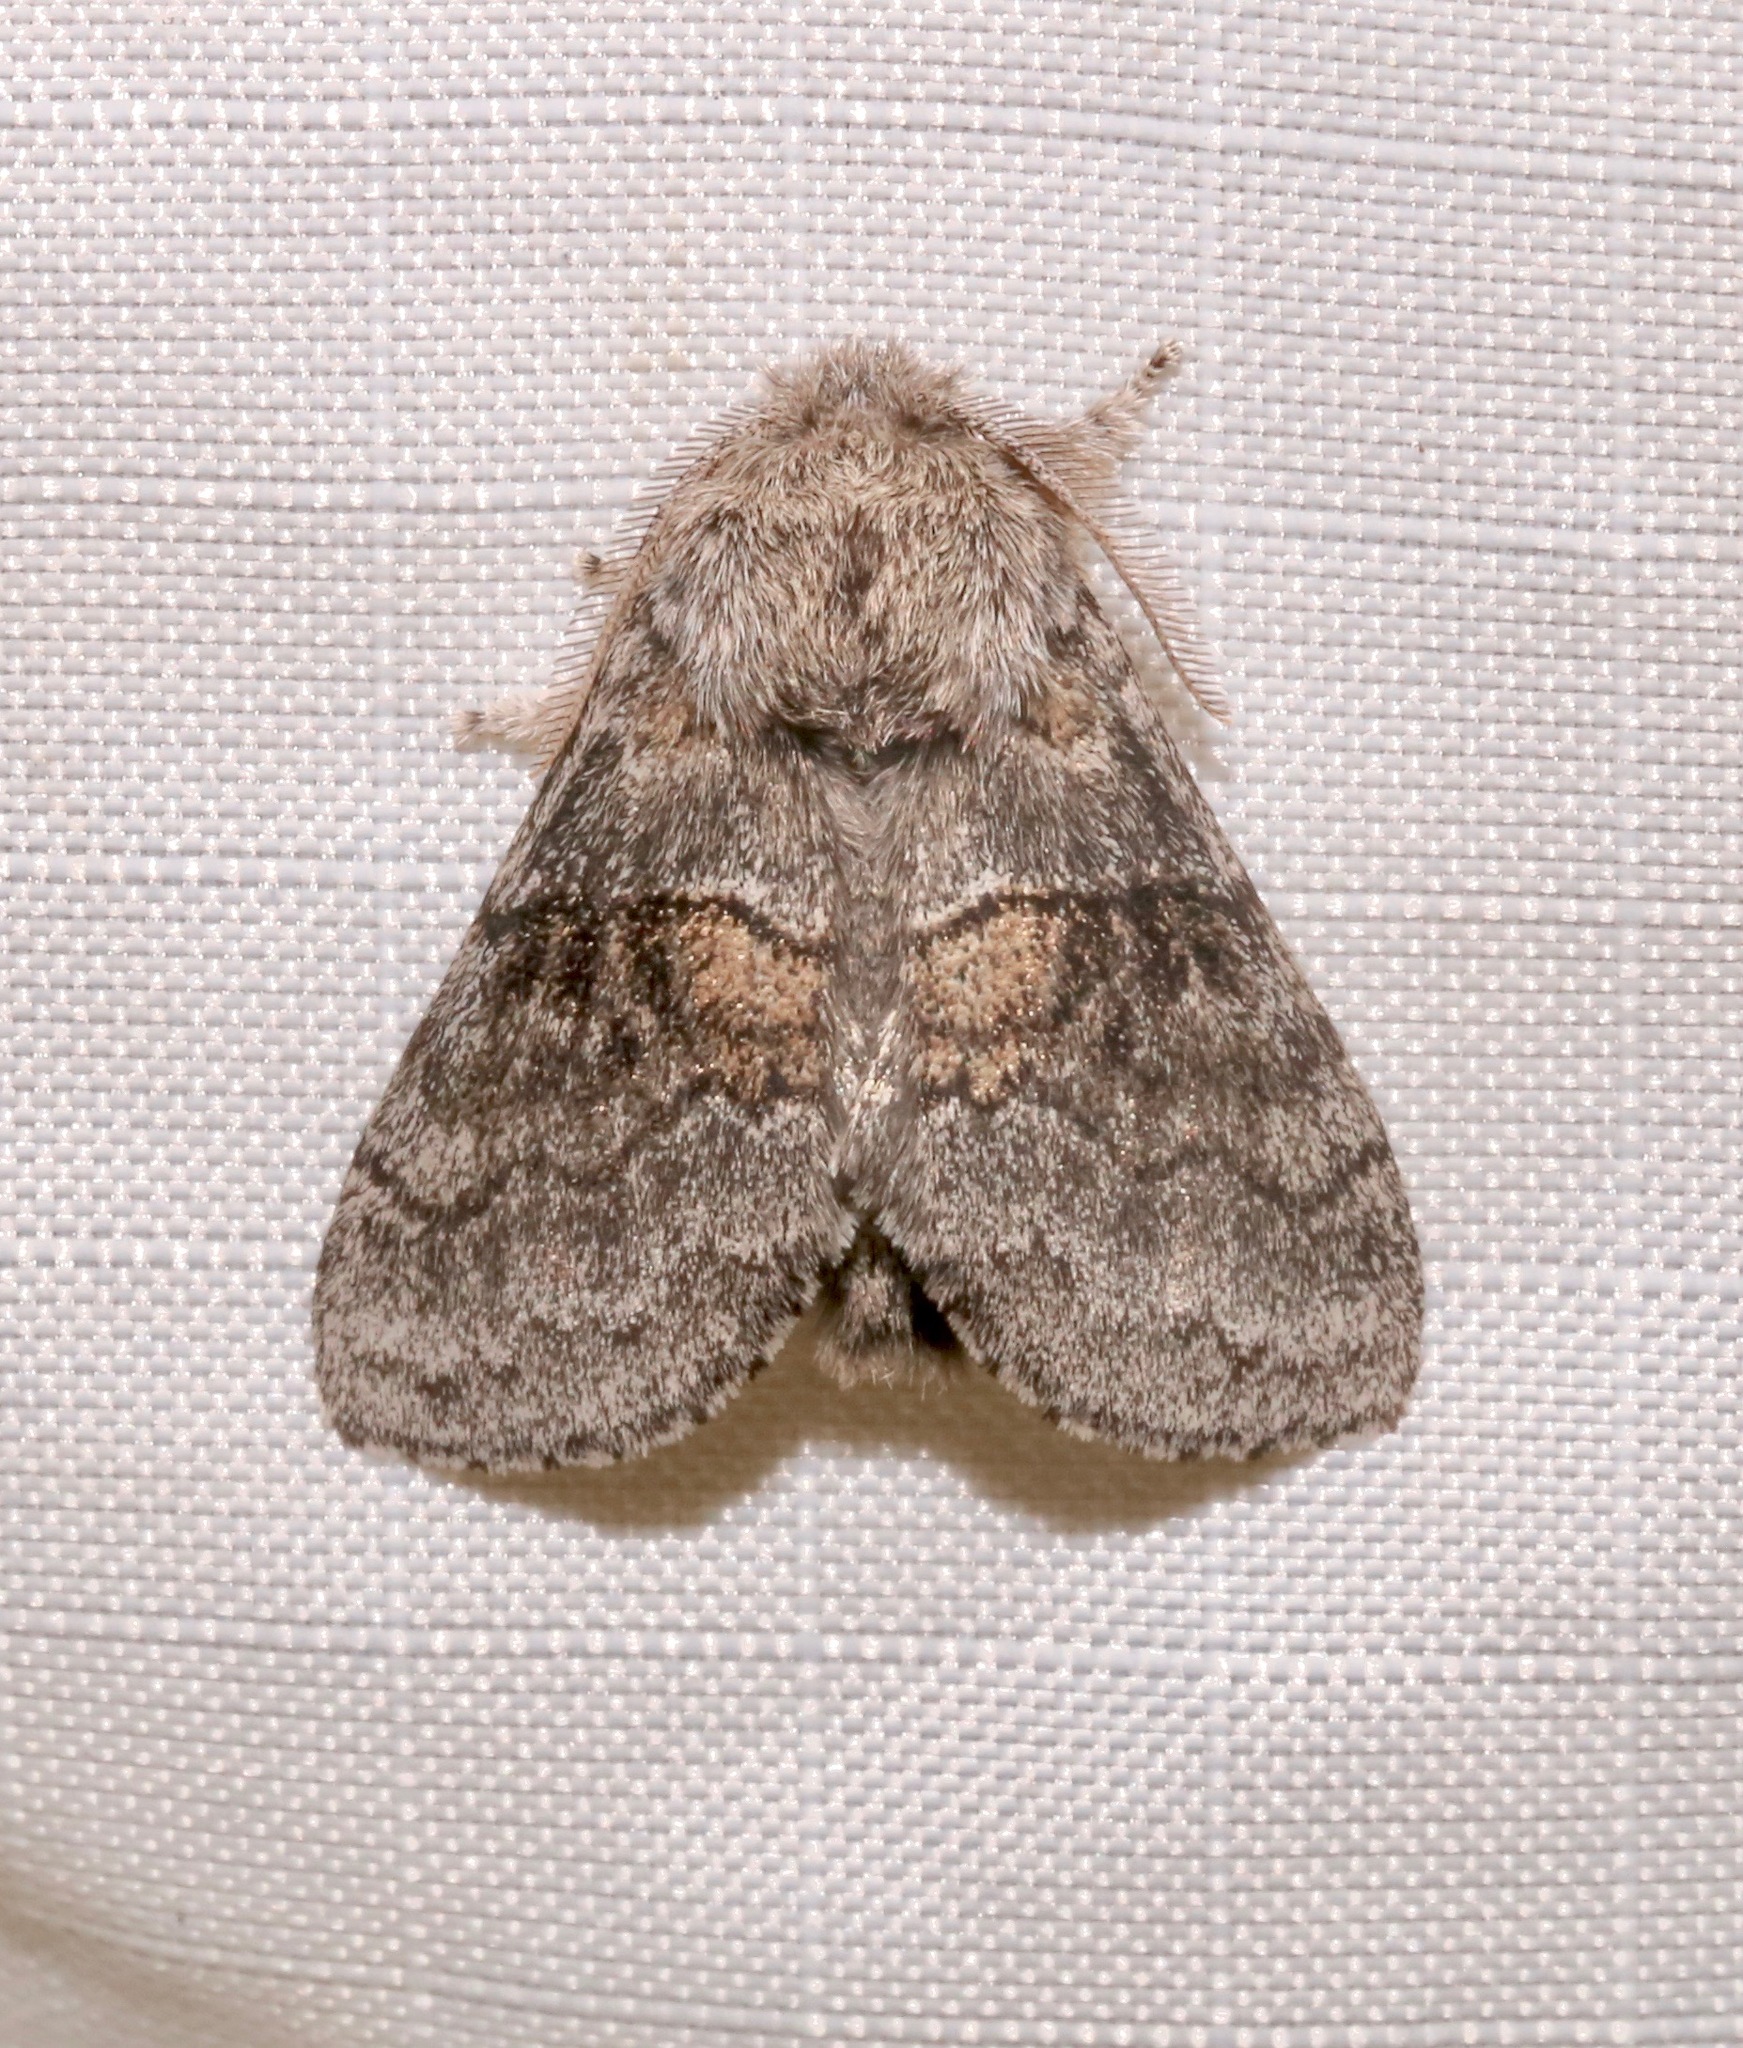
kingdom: Animalia
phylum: Arthropoda
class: Insecta
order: Lepidoptera
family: Notodontidae
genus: Gluphisia
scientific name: Gluphisia septentrionis
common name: Common gluphisia
